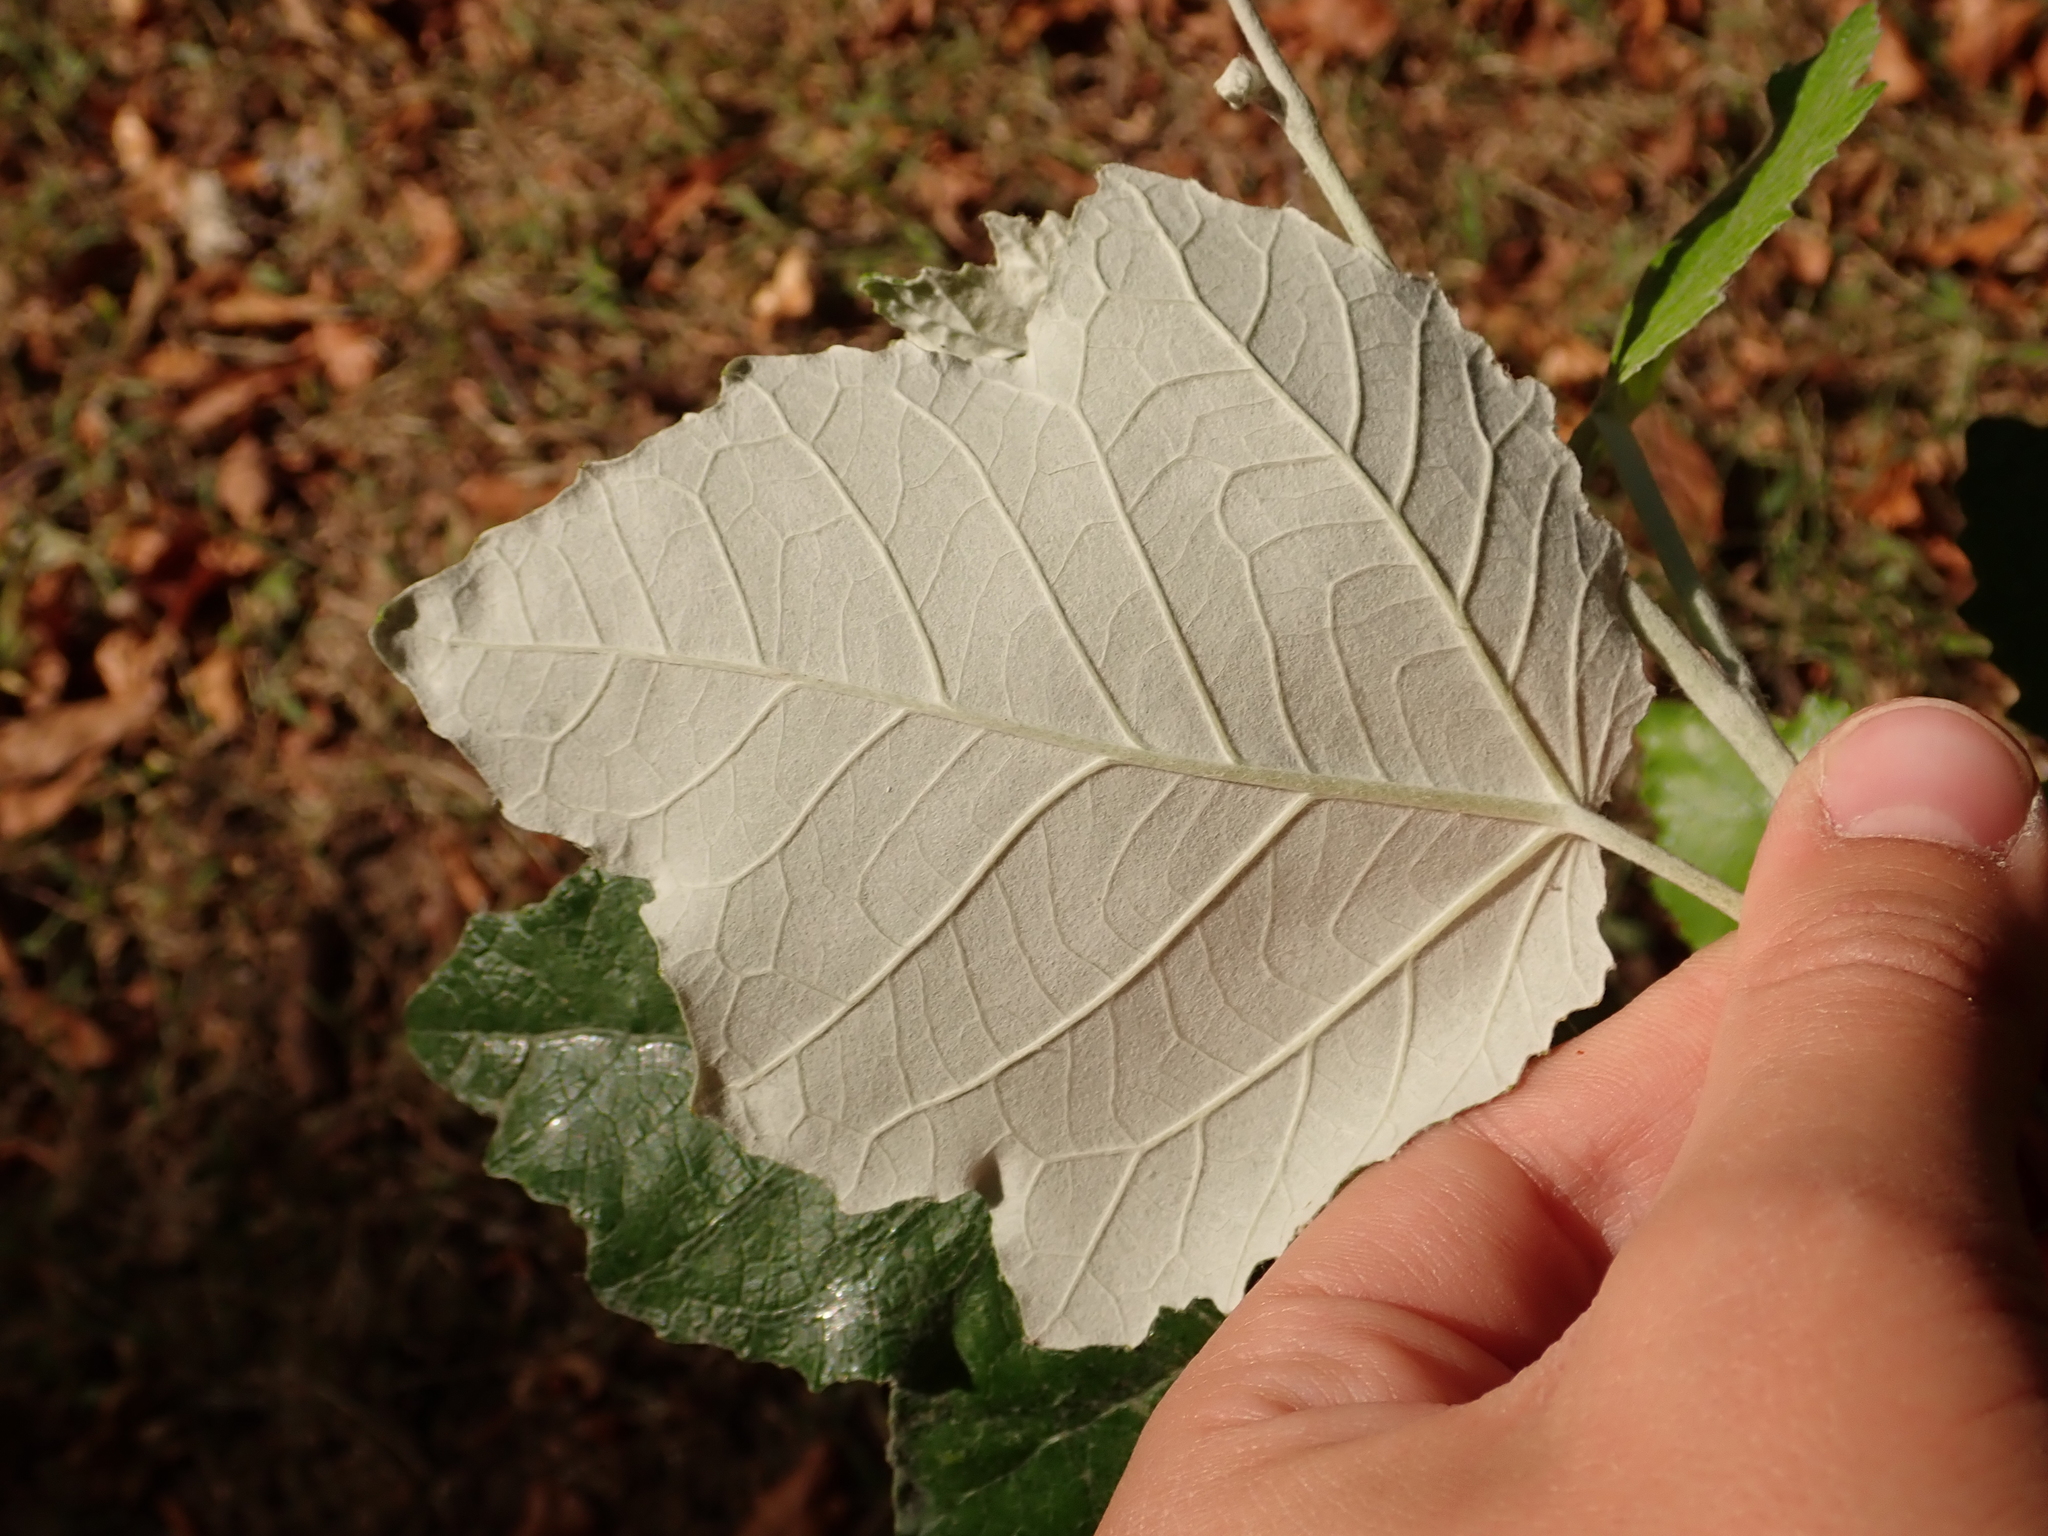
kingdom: Plantae
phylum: Tracheophyta
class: Magnoliopsida
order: Malpighiales
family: Salicaceae
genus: Populus
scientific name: Populus alba
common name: White poplar
